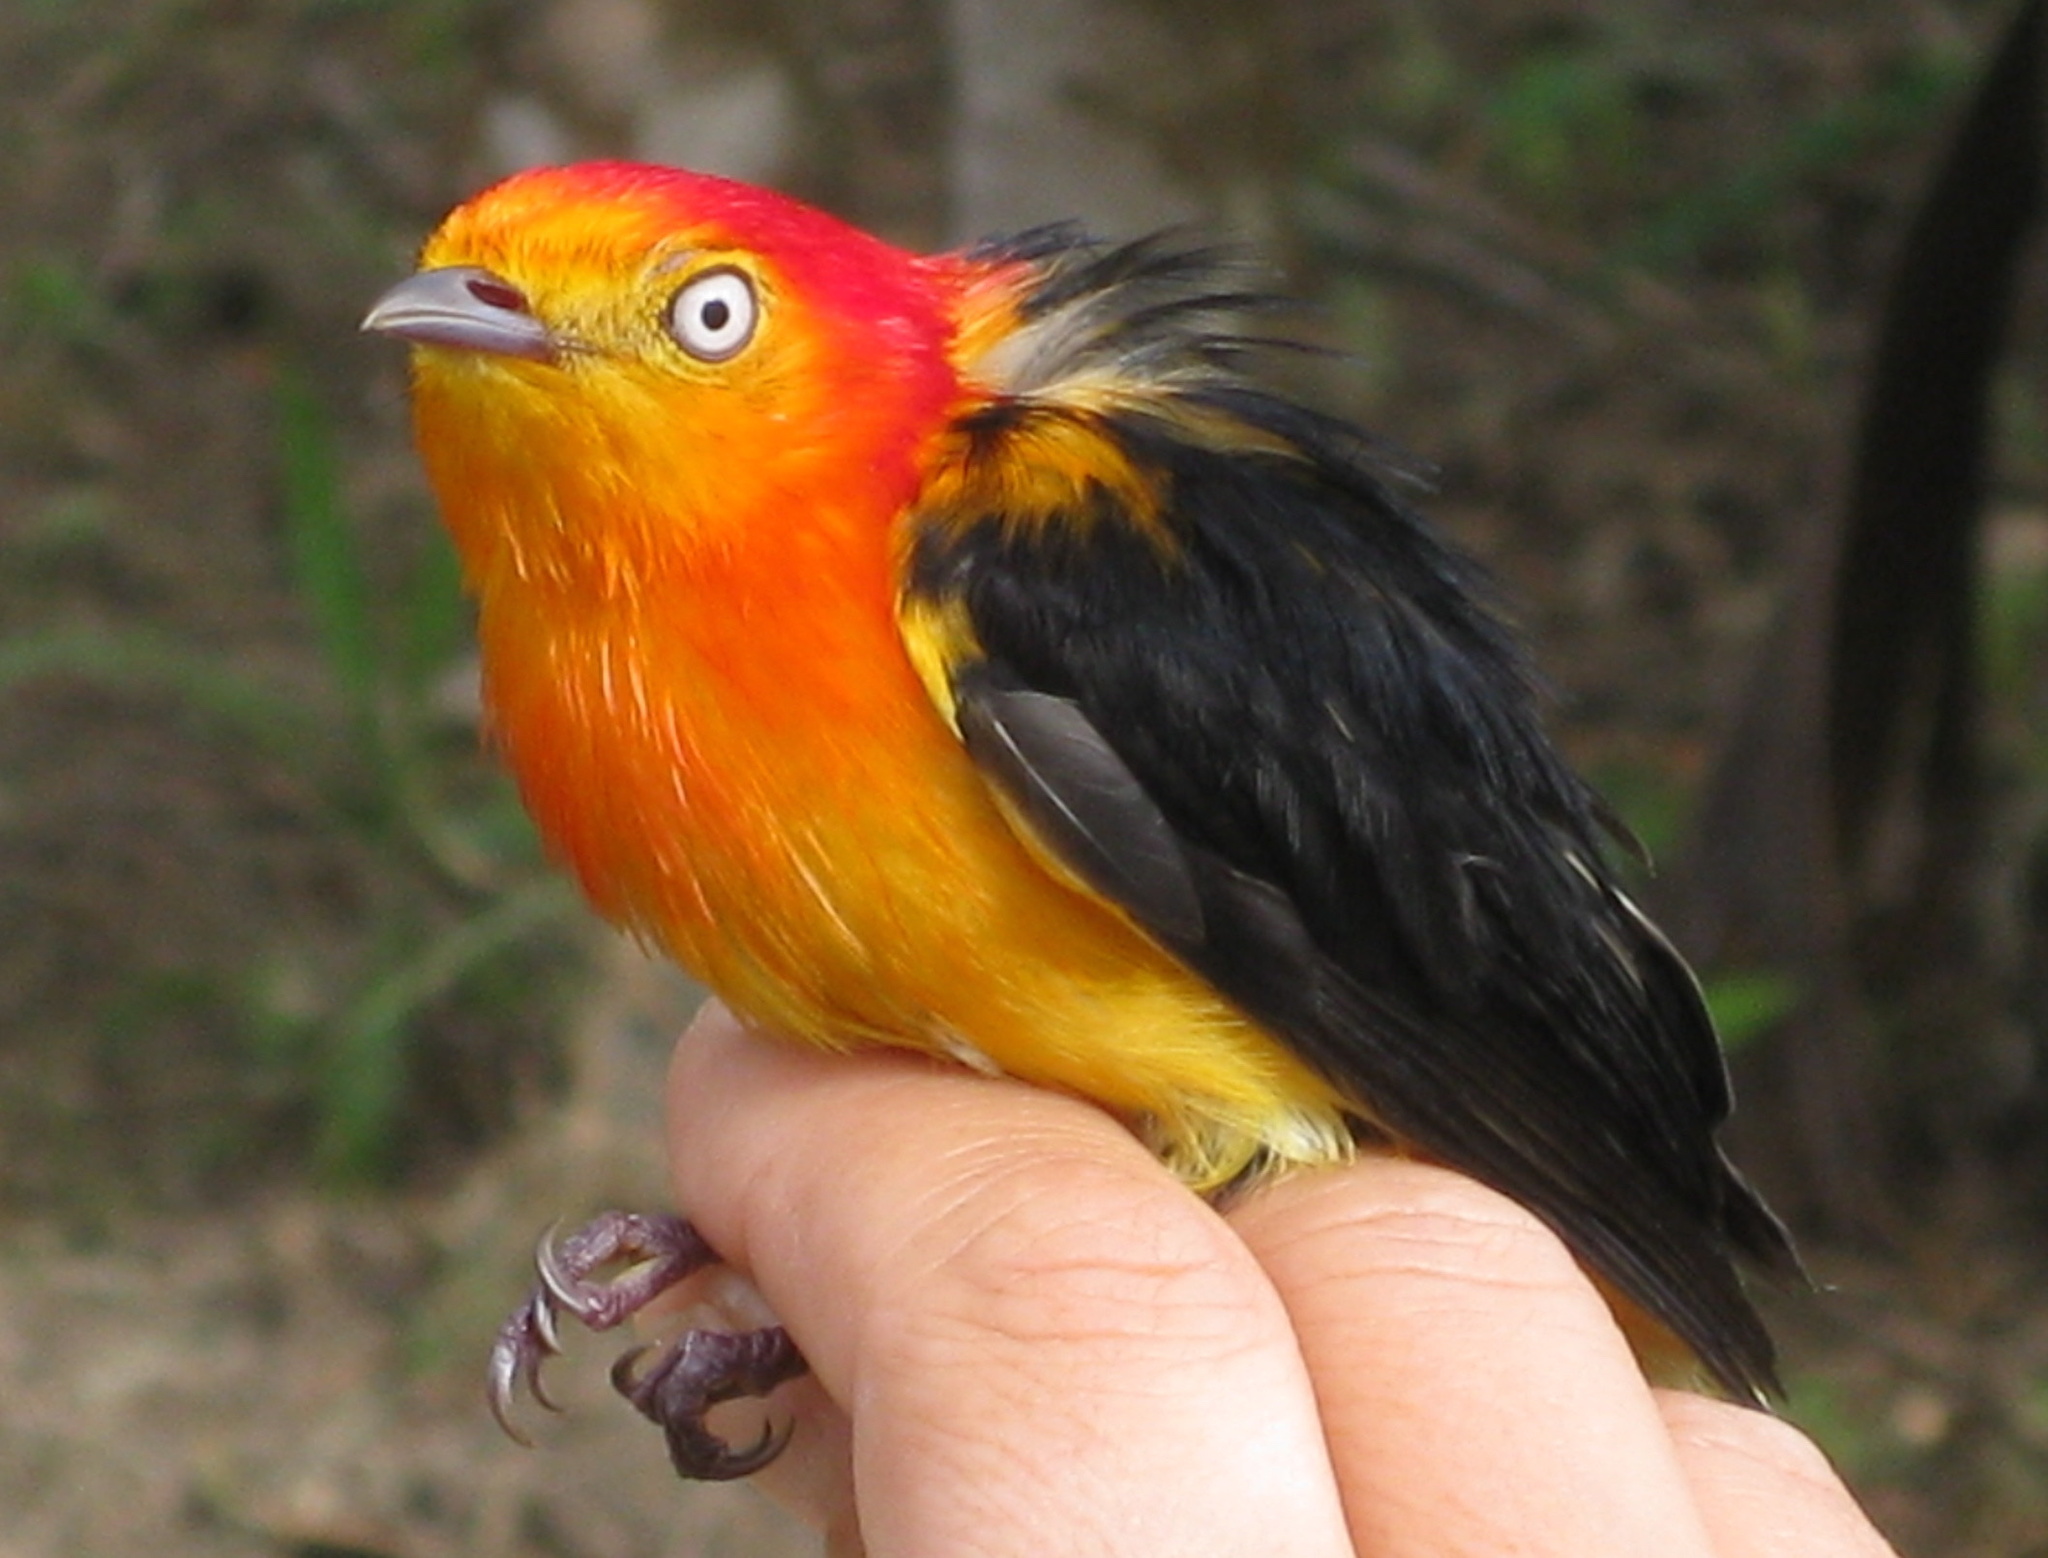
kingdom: Animalia
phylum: Chordata
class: Aves
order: Passeriformes
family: Pipridae
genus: Pipra
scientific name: Pipra fasciicauda
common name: Band-tailed manakin
